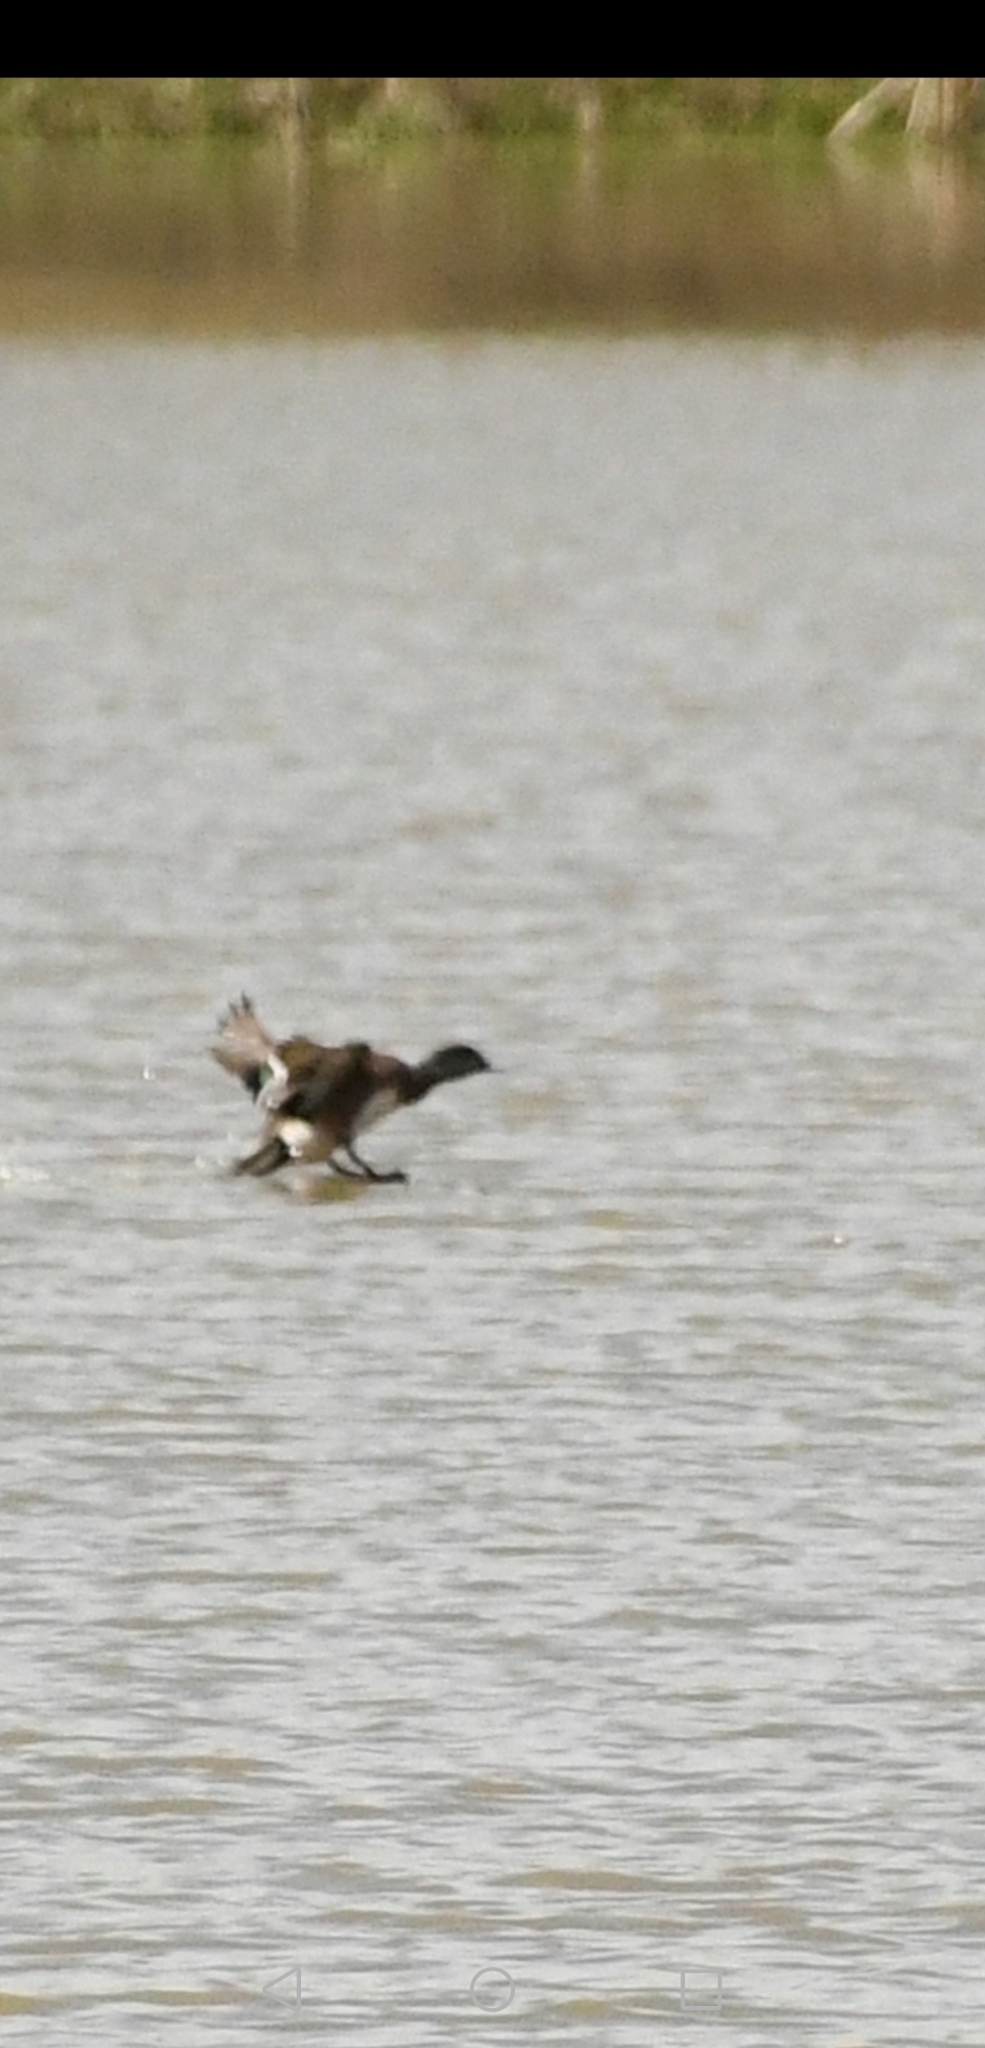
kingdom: Animalia
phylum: Chordata
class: Aves
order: Anseriformes
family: Anatidae
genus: Mareca
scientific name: Mareca americana
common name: American wigeon
